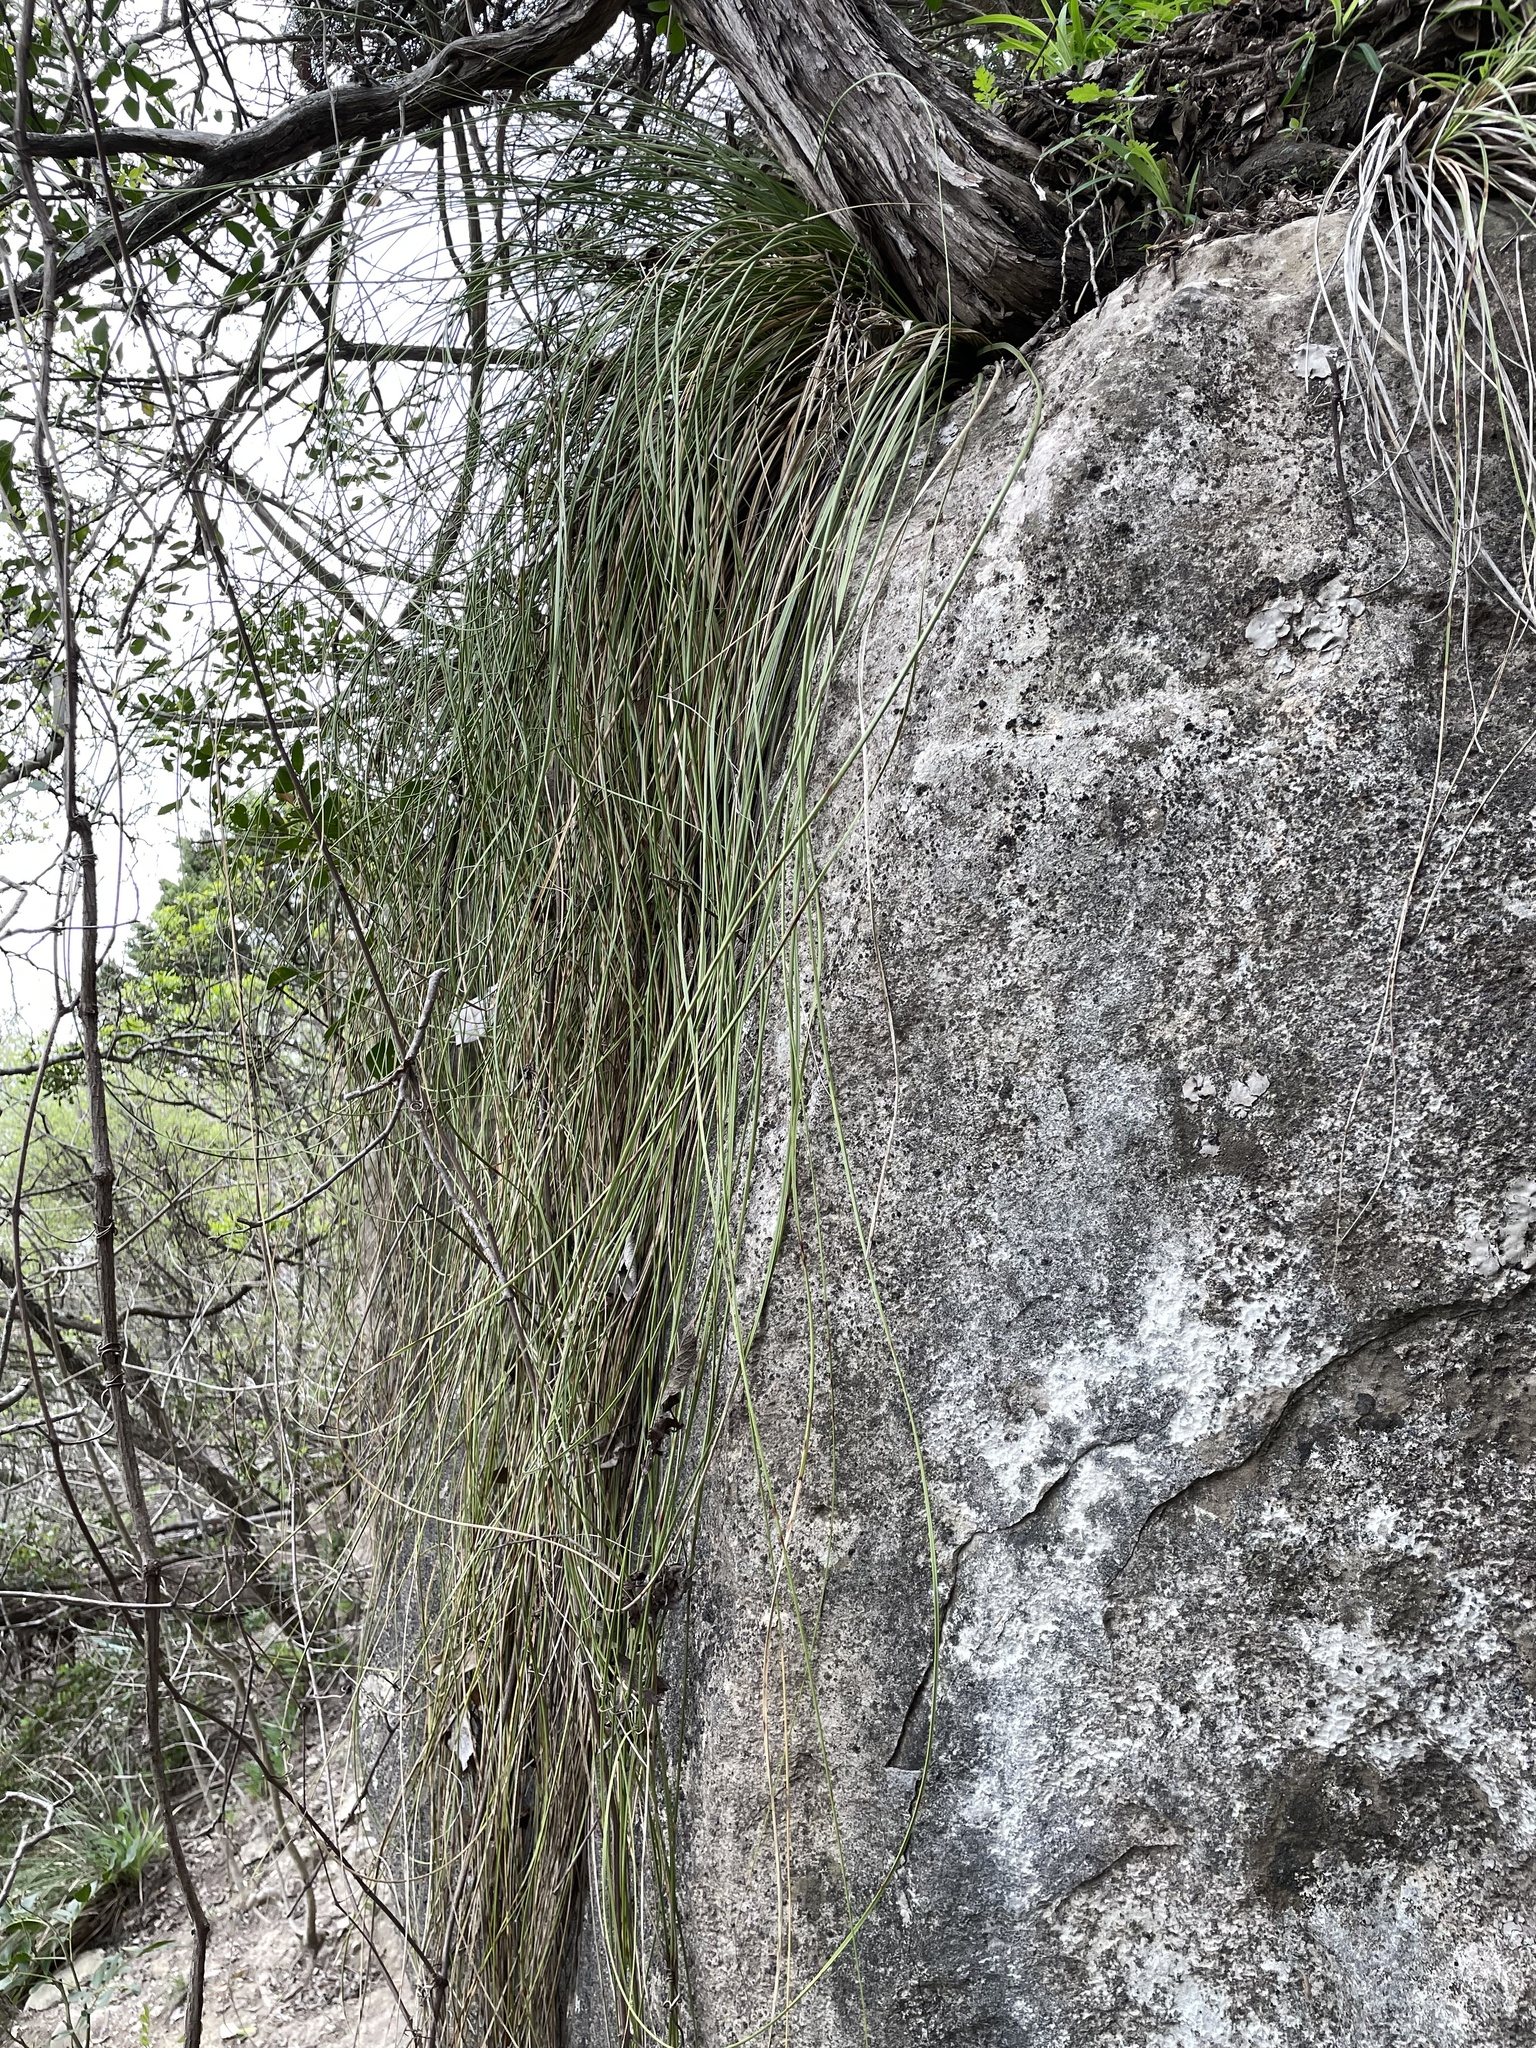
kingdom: Plantae
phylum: Tracheophyta
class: Liliopsida
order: Asparagales
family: Asparagaceae
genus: Nolina
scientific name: Nolina texana
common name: Texas sacahuiste
